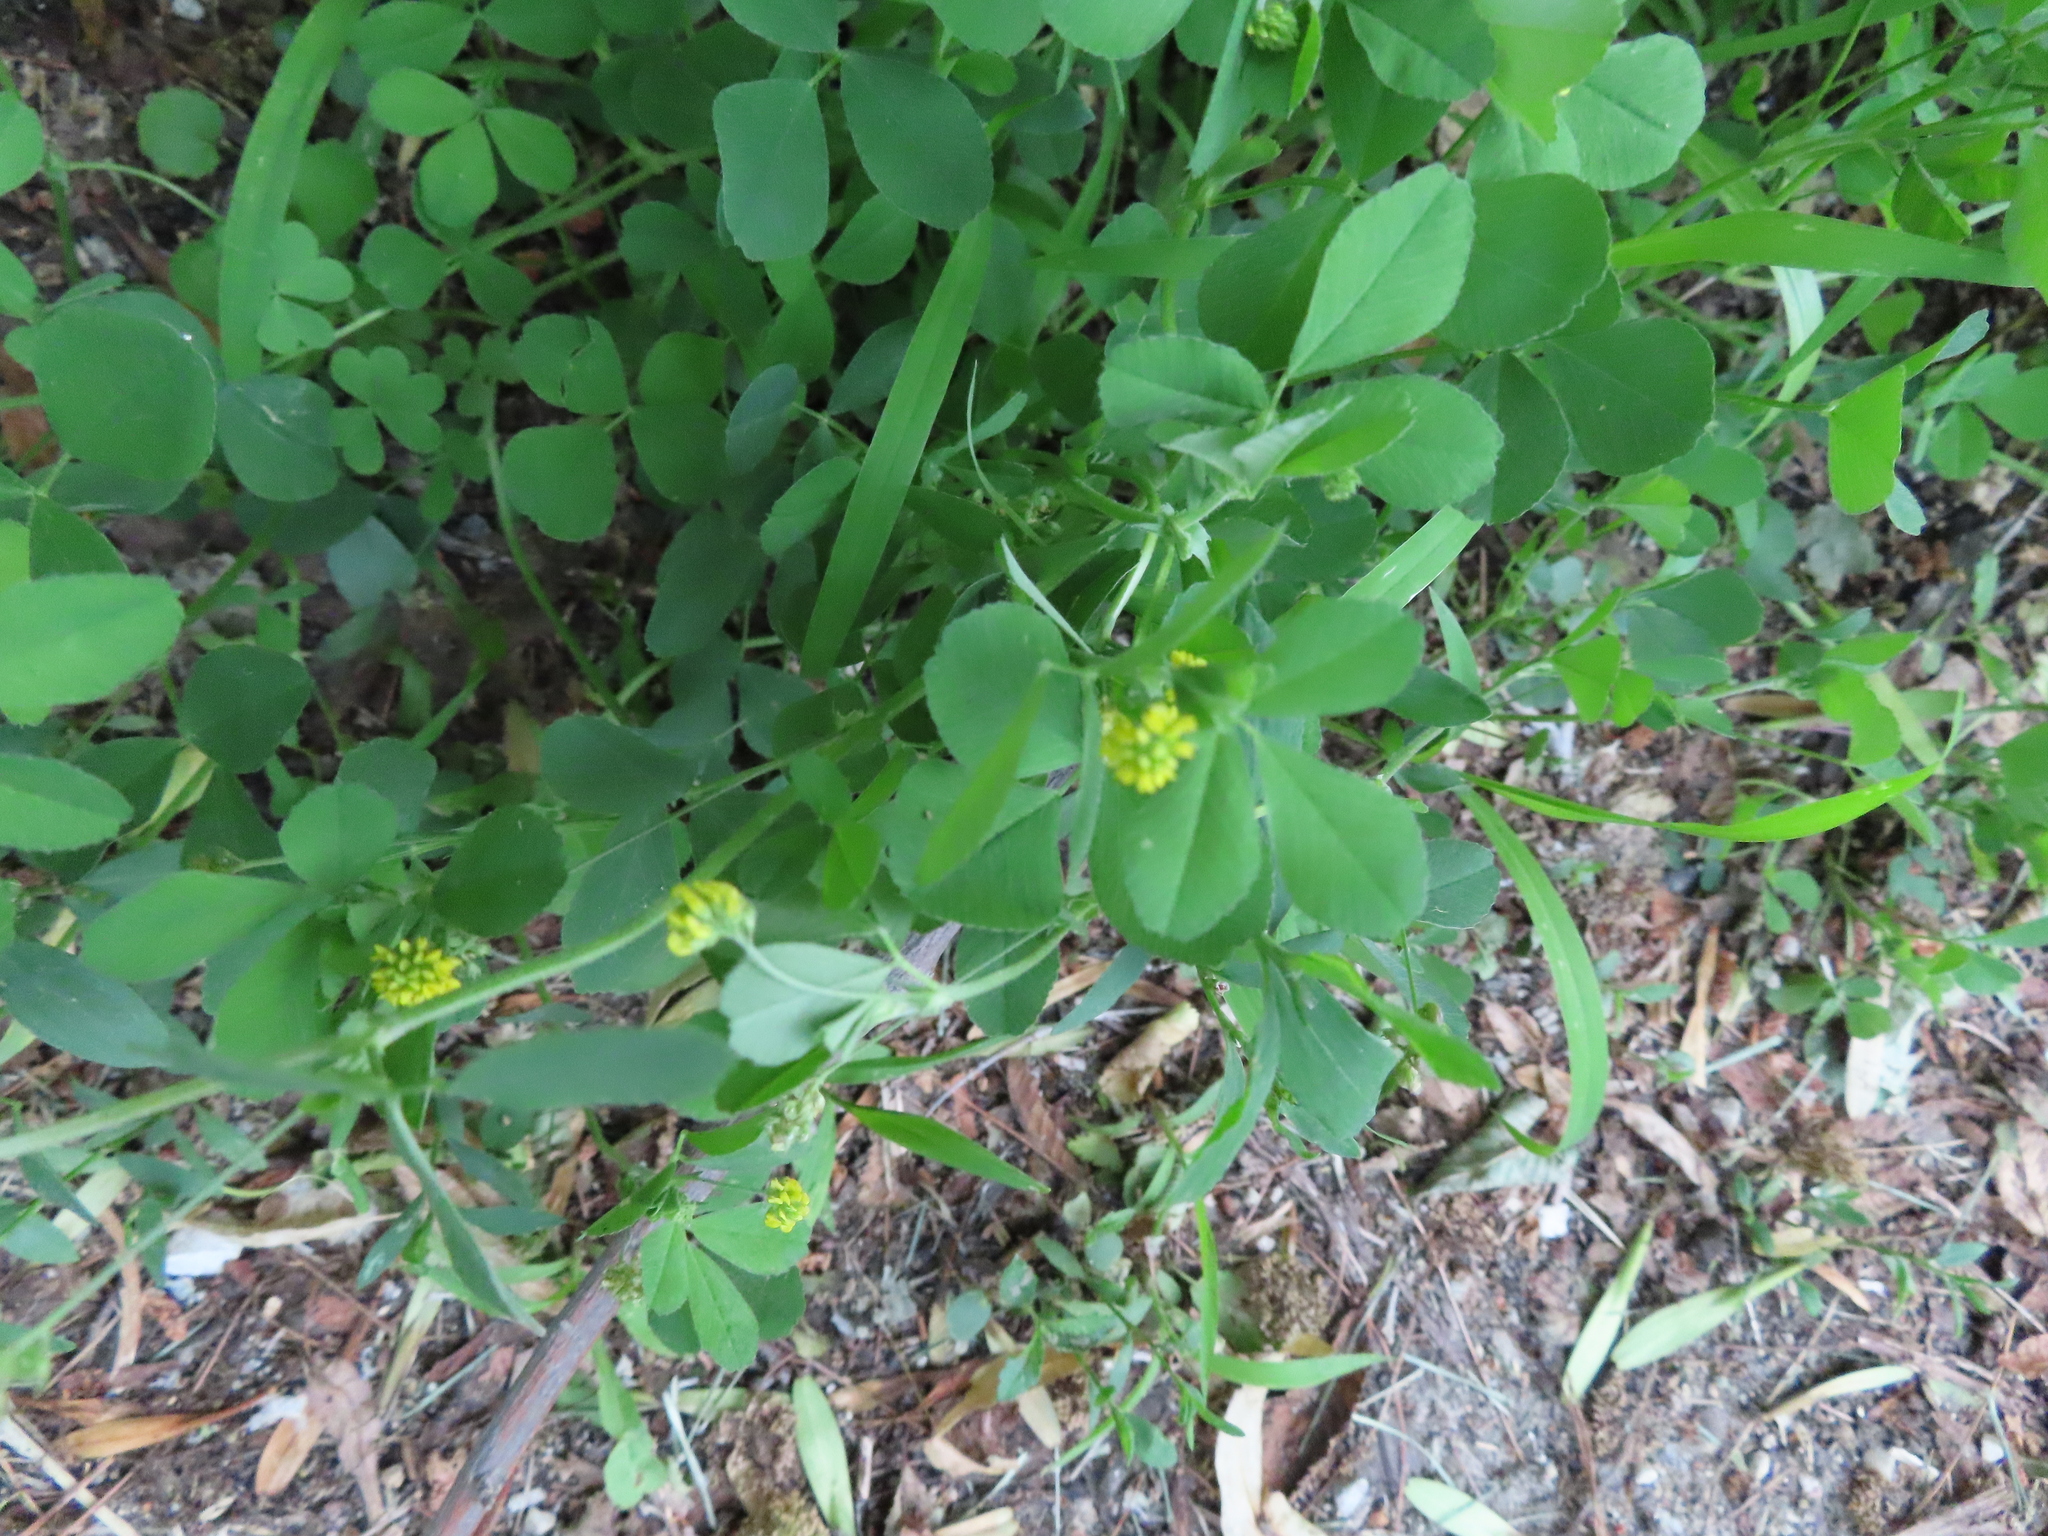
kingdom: Plantae
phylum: Tracheophyta
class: Magnoliopsida
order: Fabales
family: Fabaceae
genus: Medicago
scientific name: Medicago lupulina
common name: Black medick
